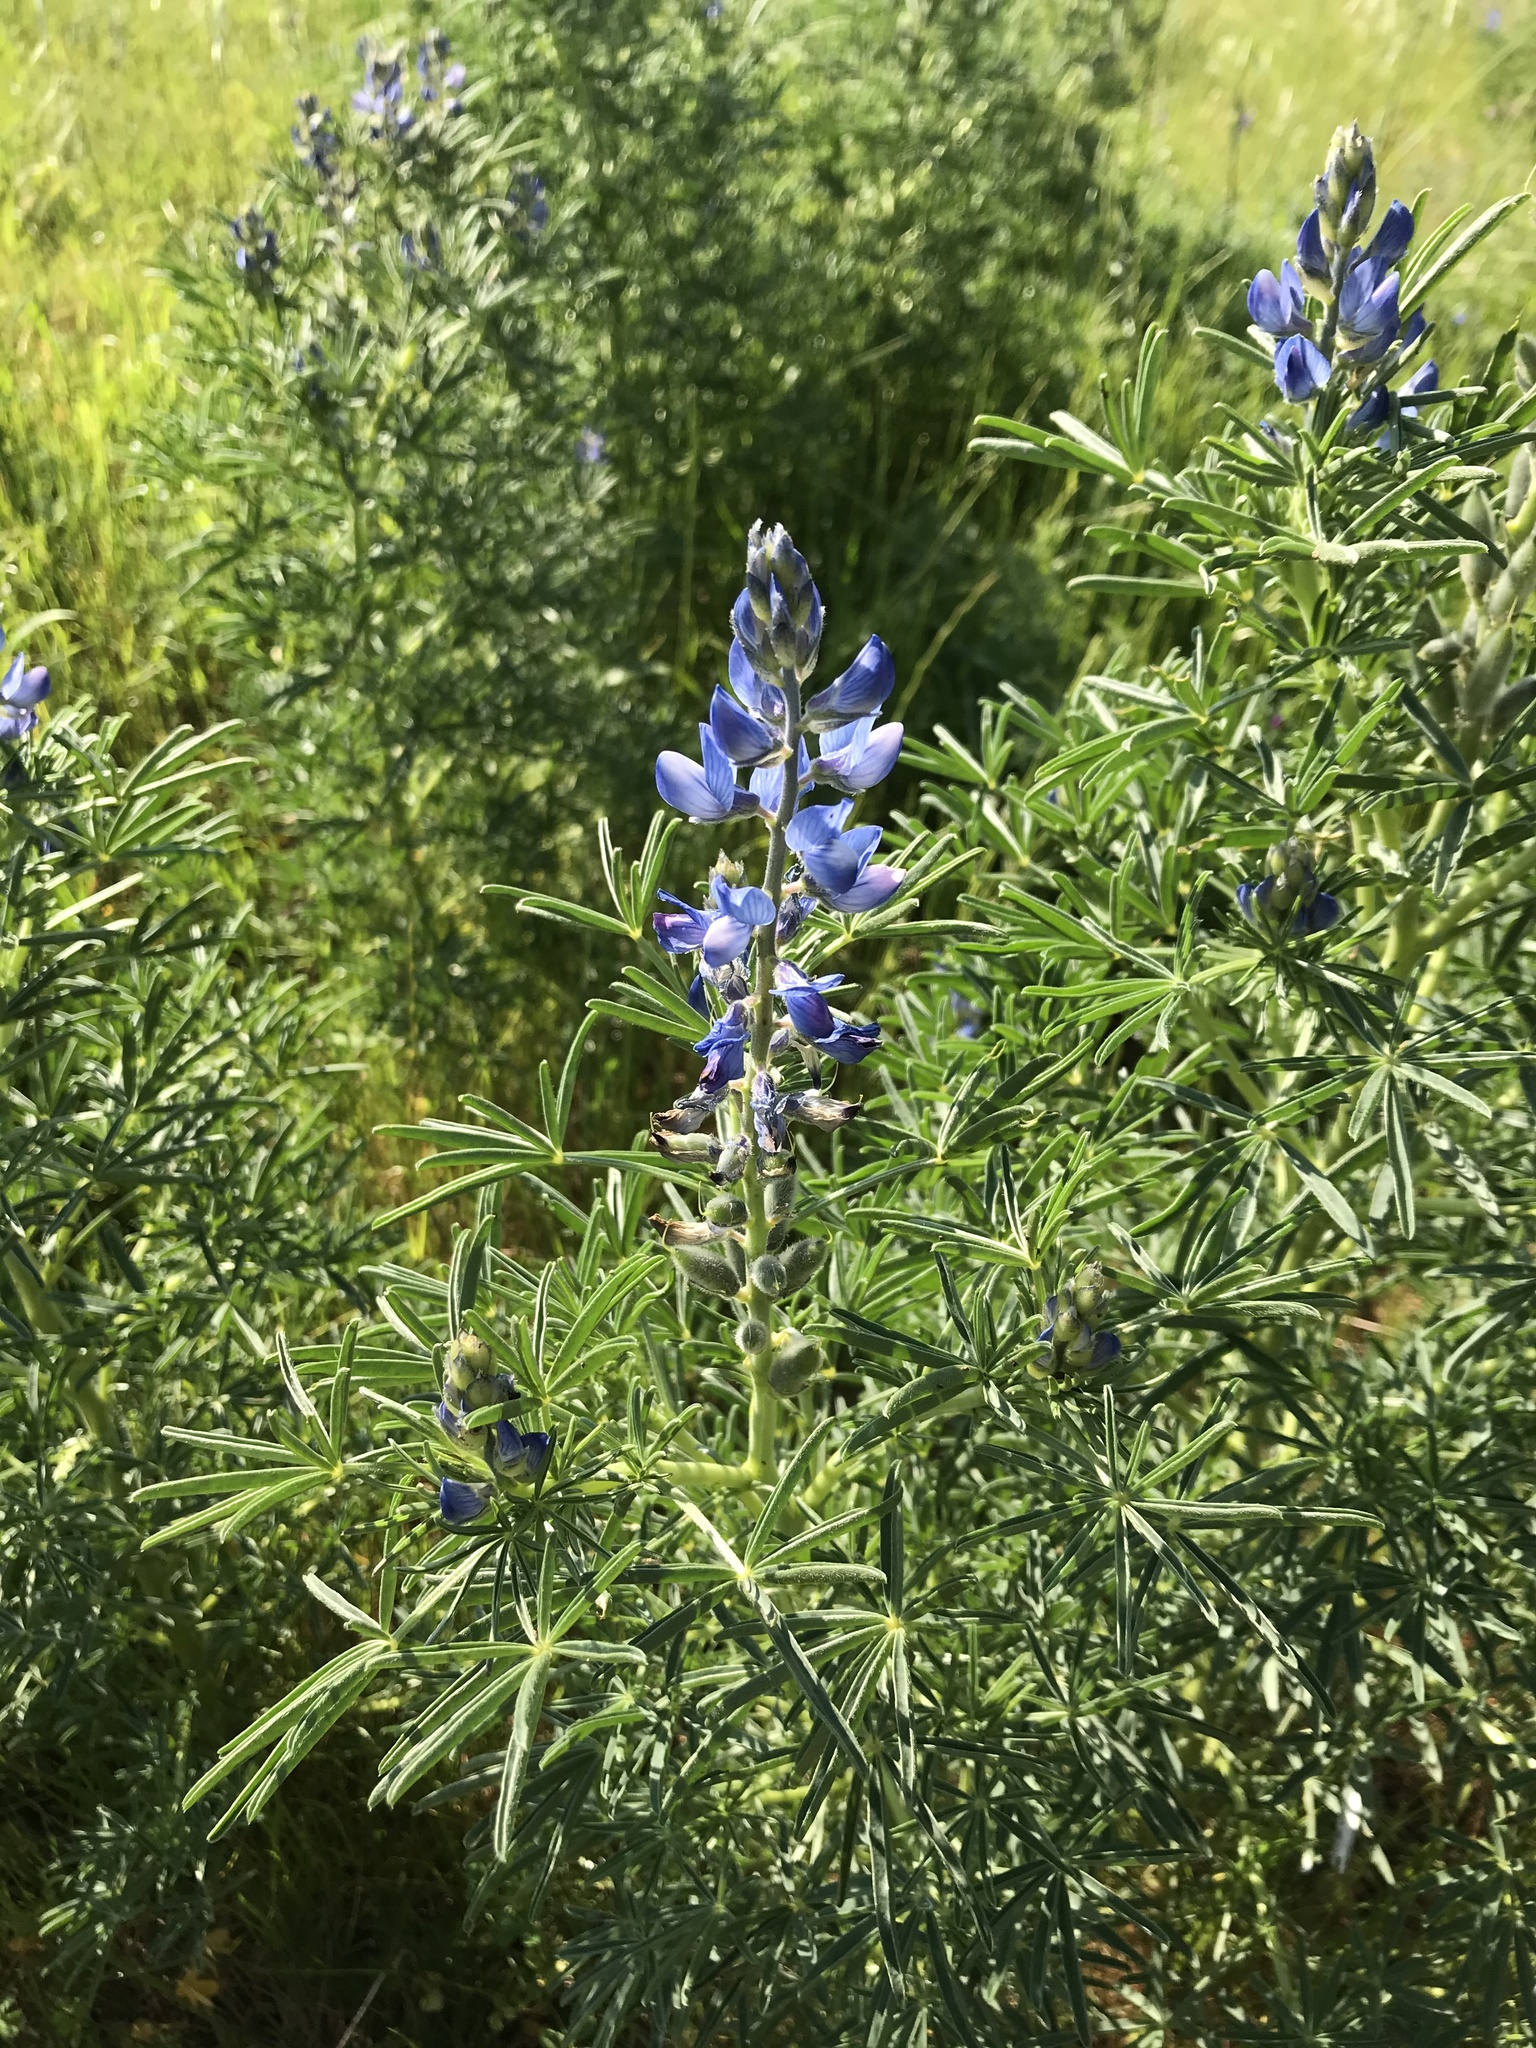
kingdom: Plantae
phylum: Tracheophyta
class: Magnoliopsida
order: Fabales
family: Fabaceae
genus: Lupinus
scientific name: Lupinus angustifolius
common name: Narrow-leaved lupin
